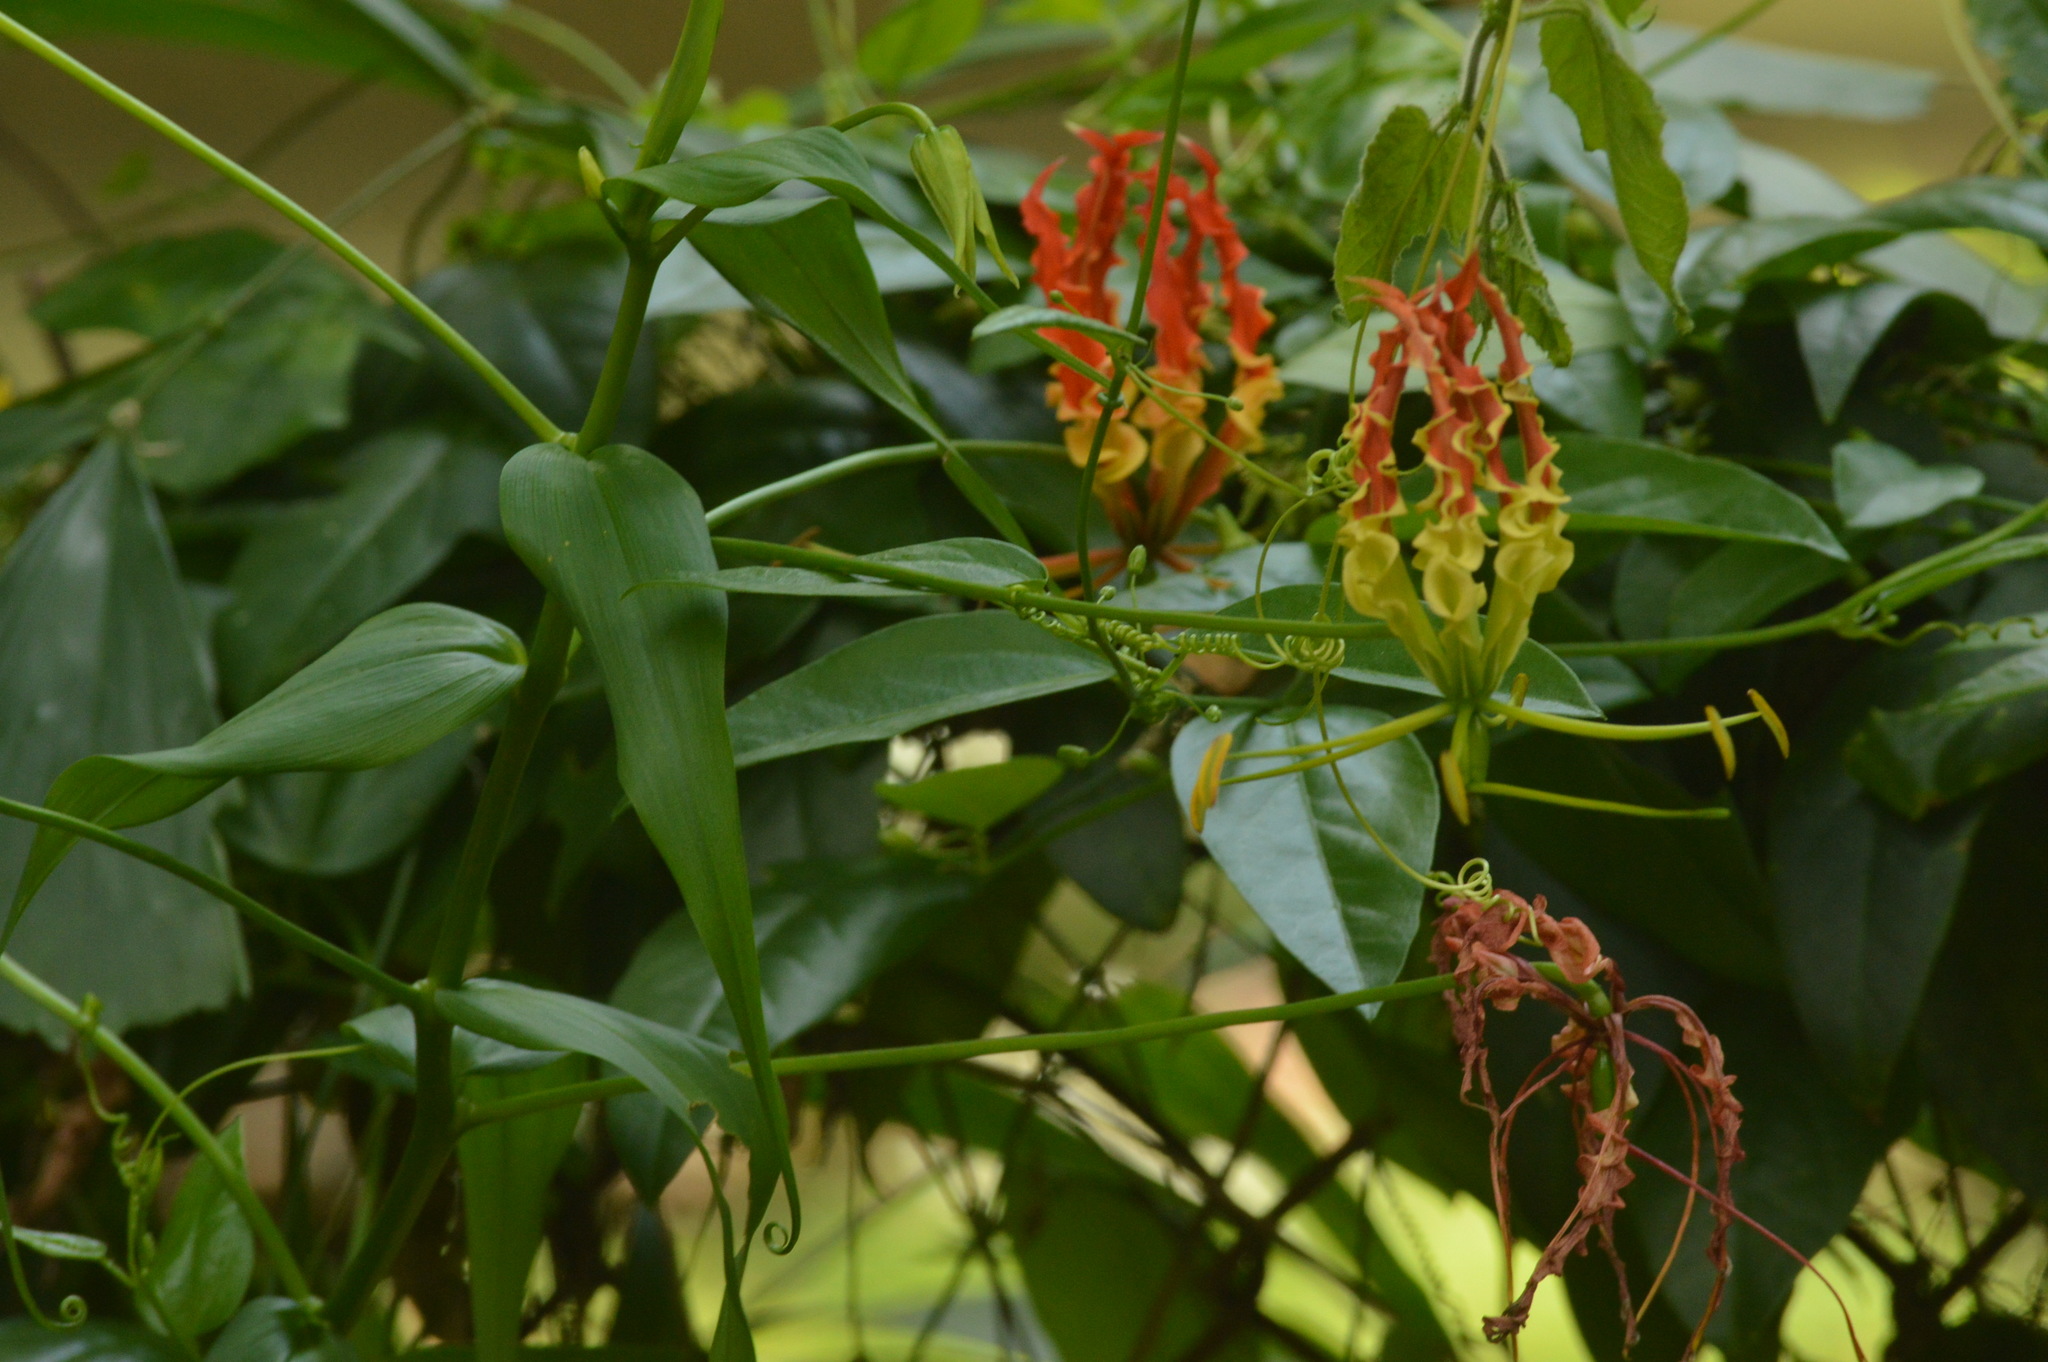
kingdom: Plantae
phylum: Tracheophyta
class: Liliopsida
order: Liliales
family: Colchicaceae
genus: Gloriosa
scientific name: Gloriosa superba
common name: Flame lily
